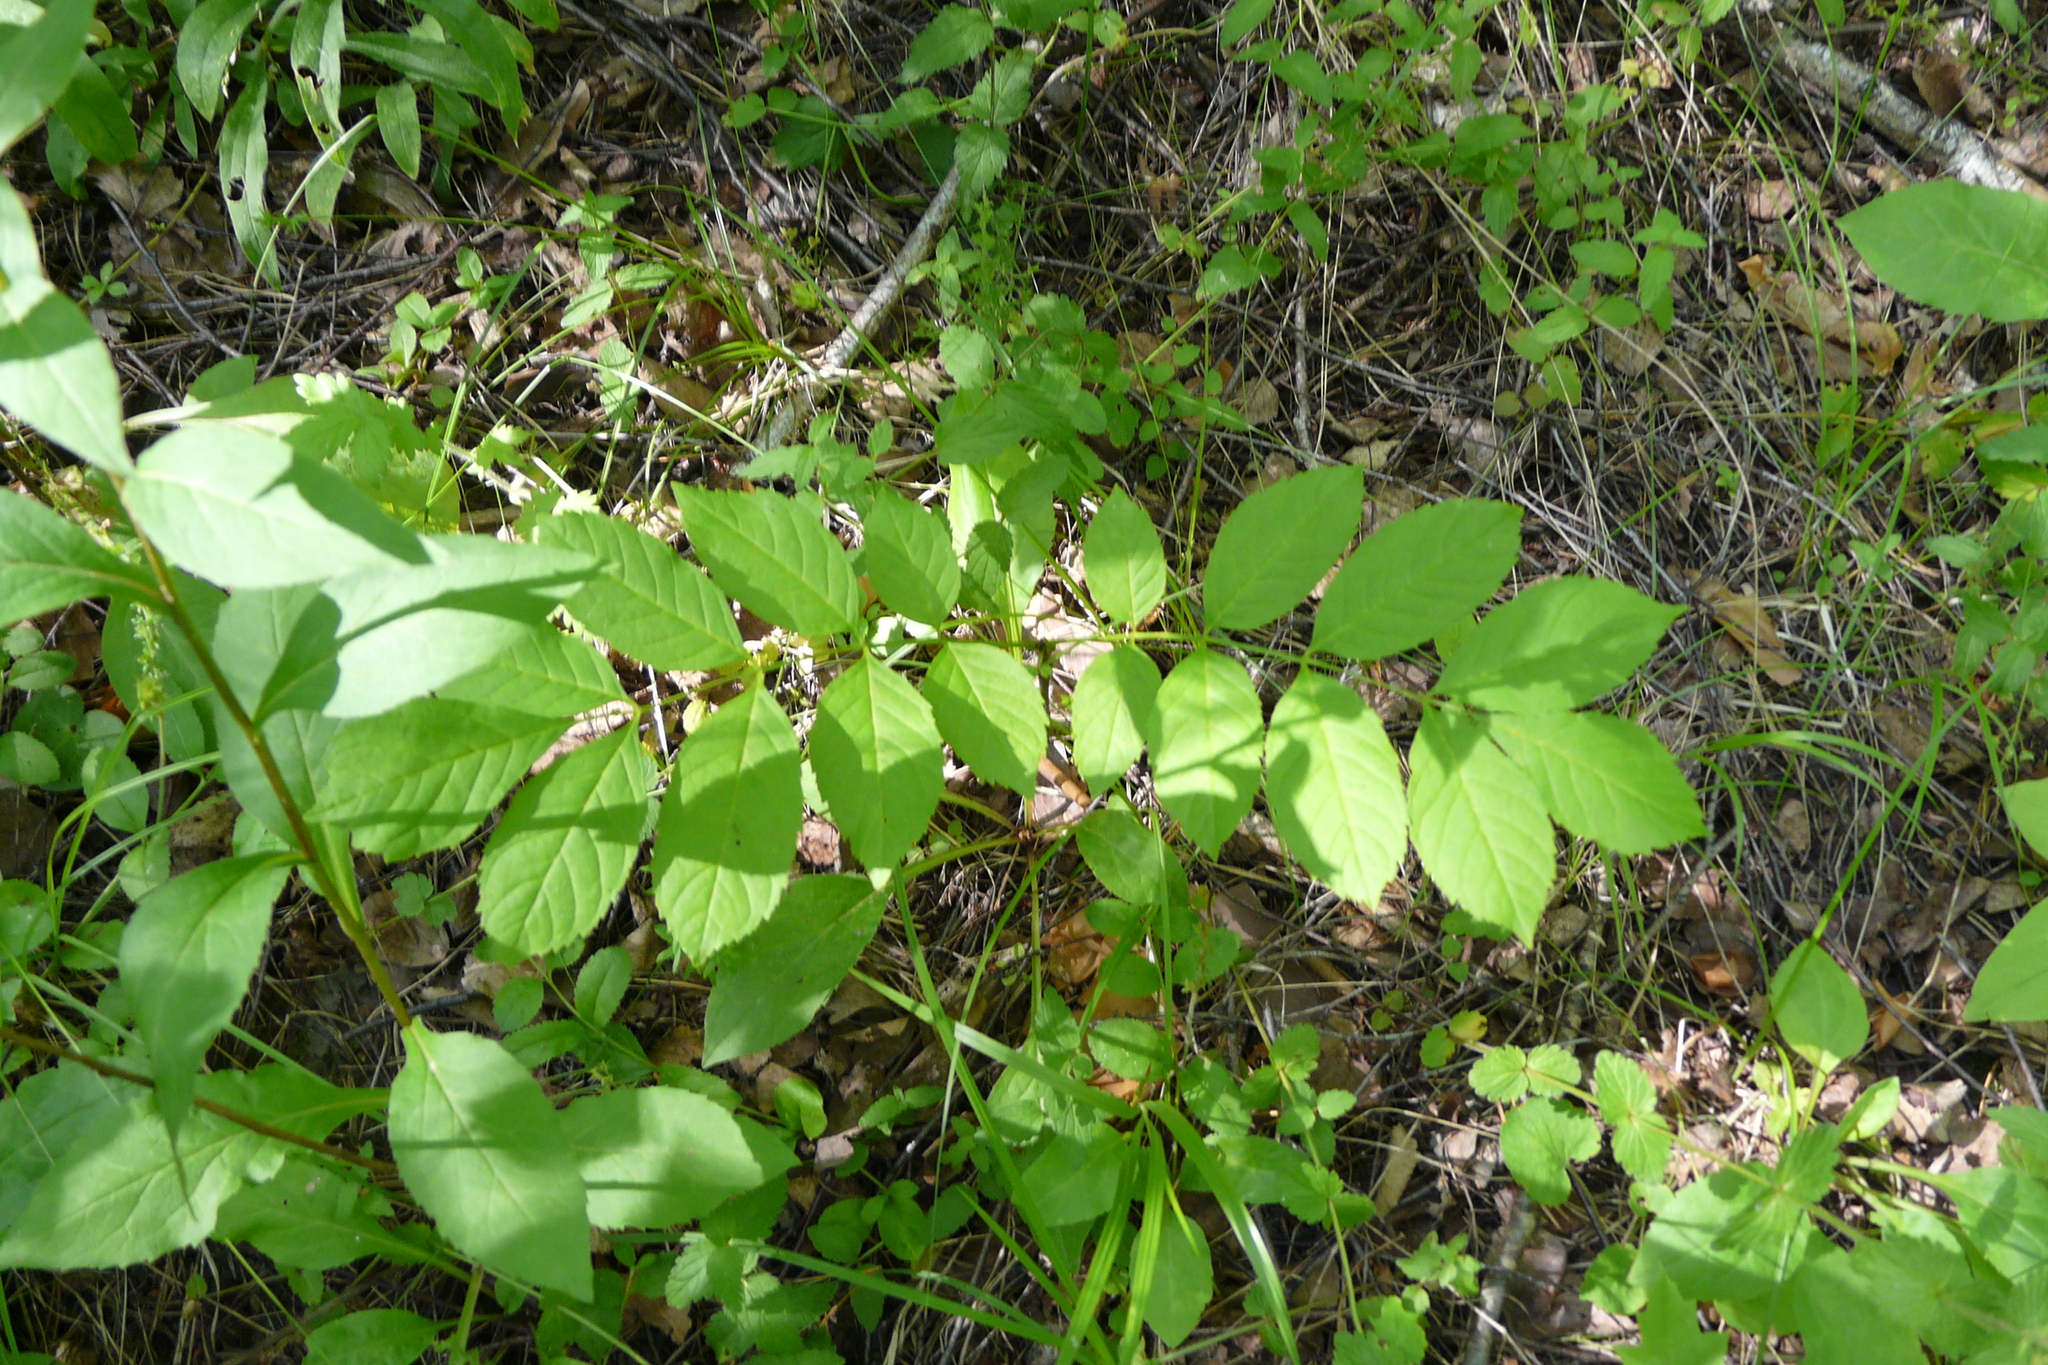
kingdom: Plantae
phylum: Tracheophyta
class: Magnoliopsida
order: Lamiales
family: Oleaceae
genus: Fraxinus
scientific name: Fraxinus excelsior
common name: European ash
